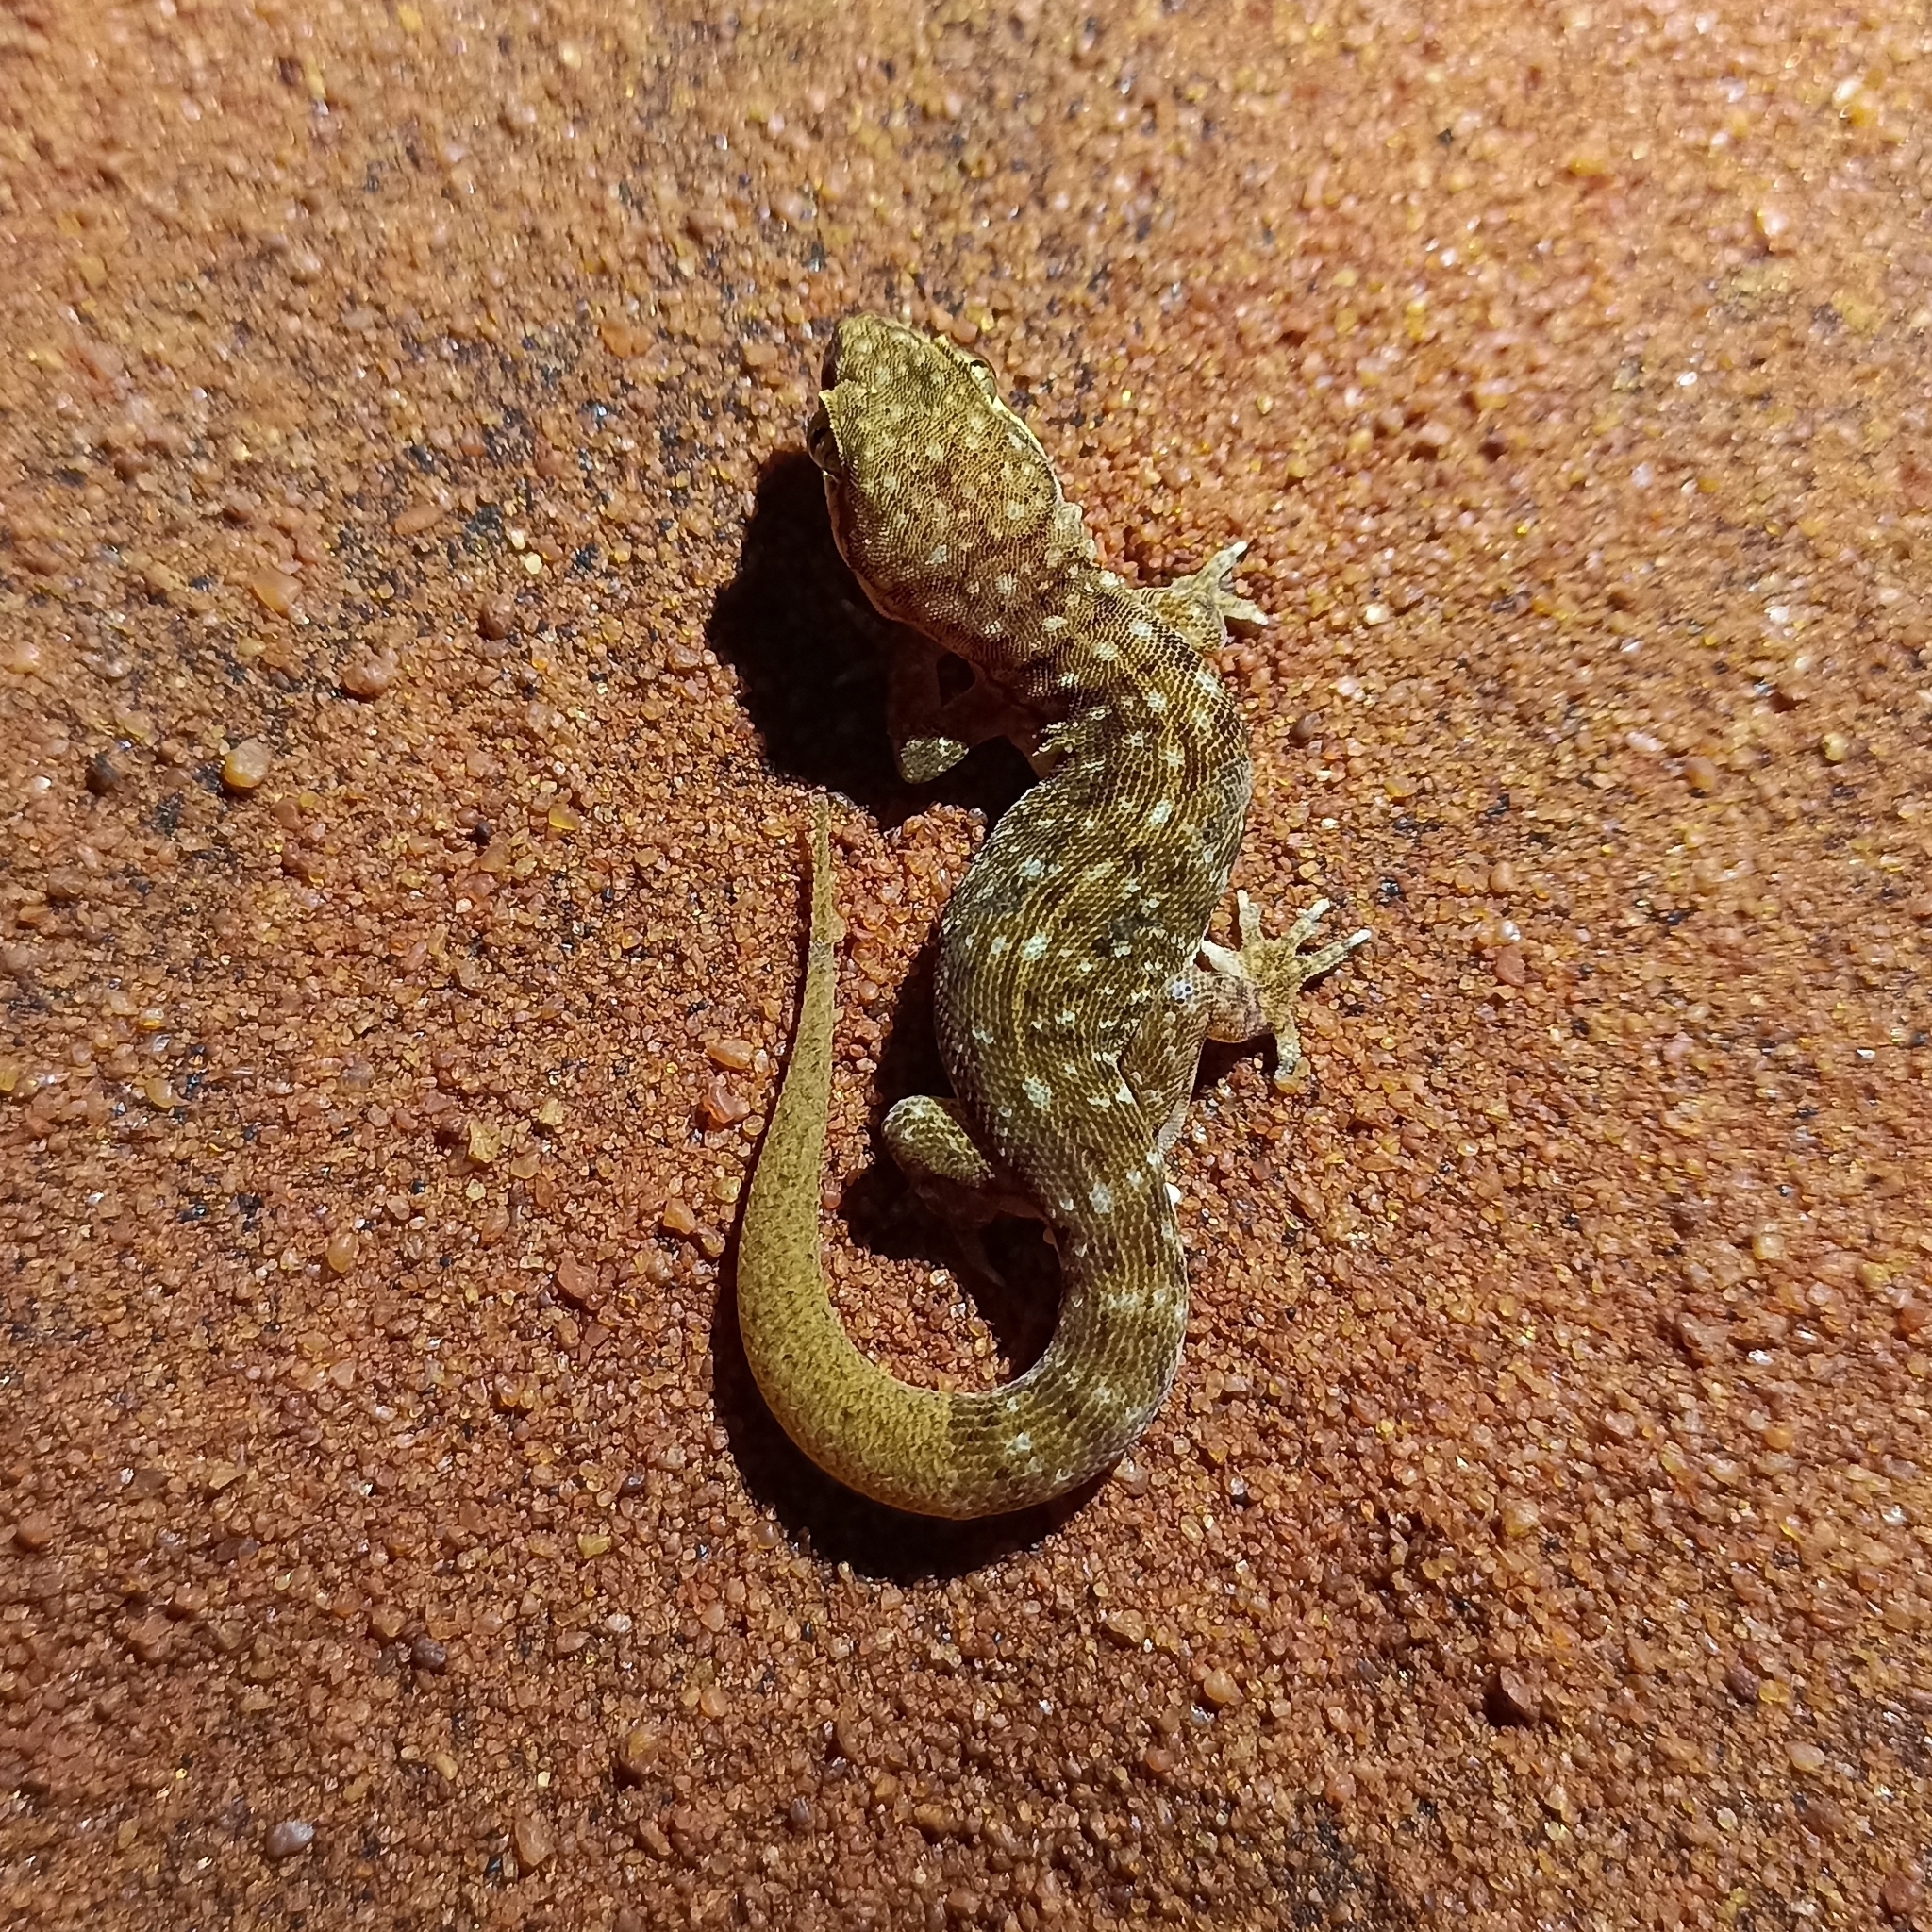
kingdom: Animalia
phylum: Chordata
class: Squamata
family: Gekkonidae
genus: Hemidactylus
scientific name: Hemidactylus scabriceps
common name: Scaly gecko
